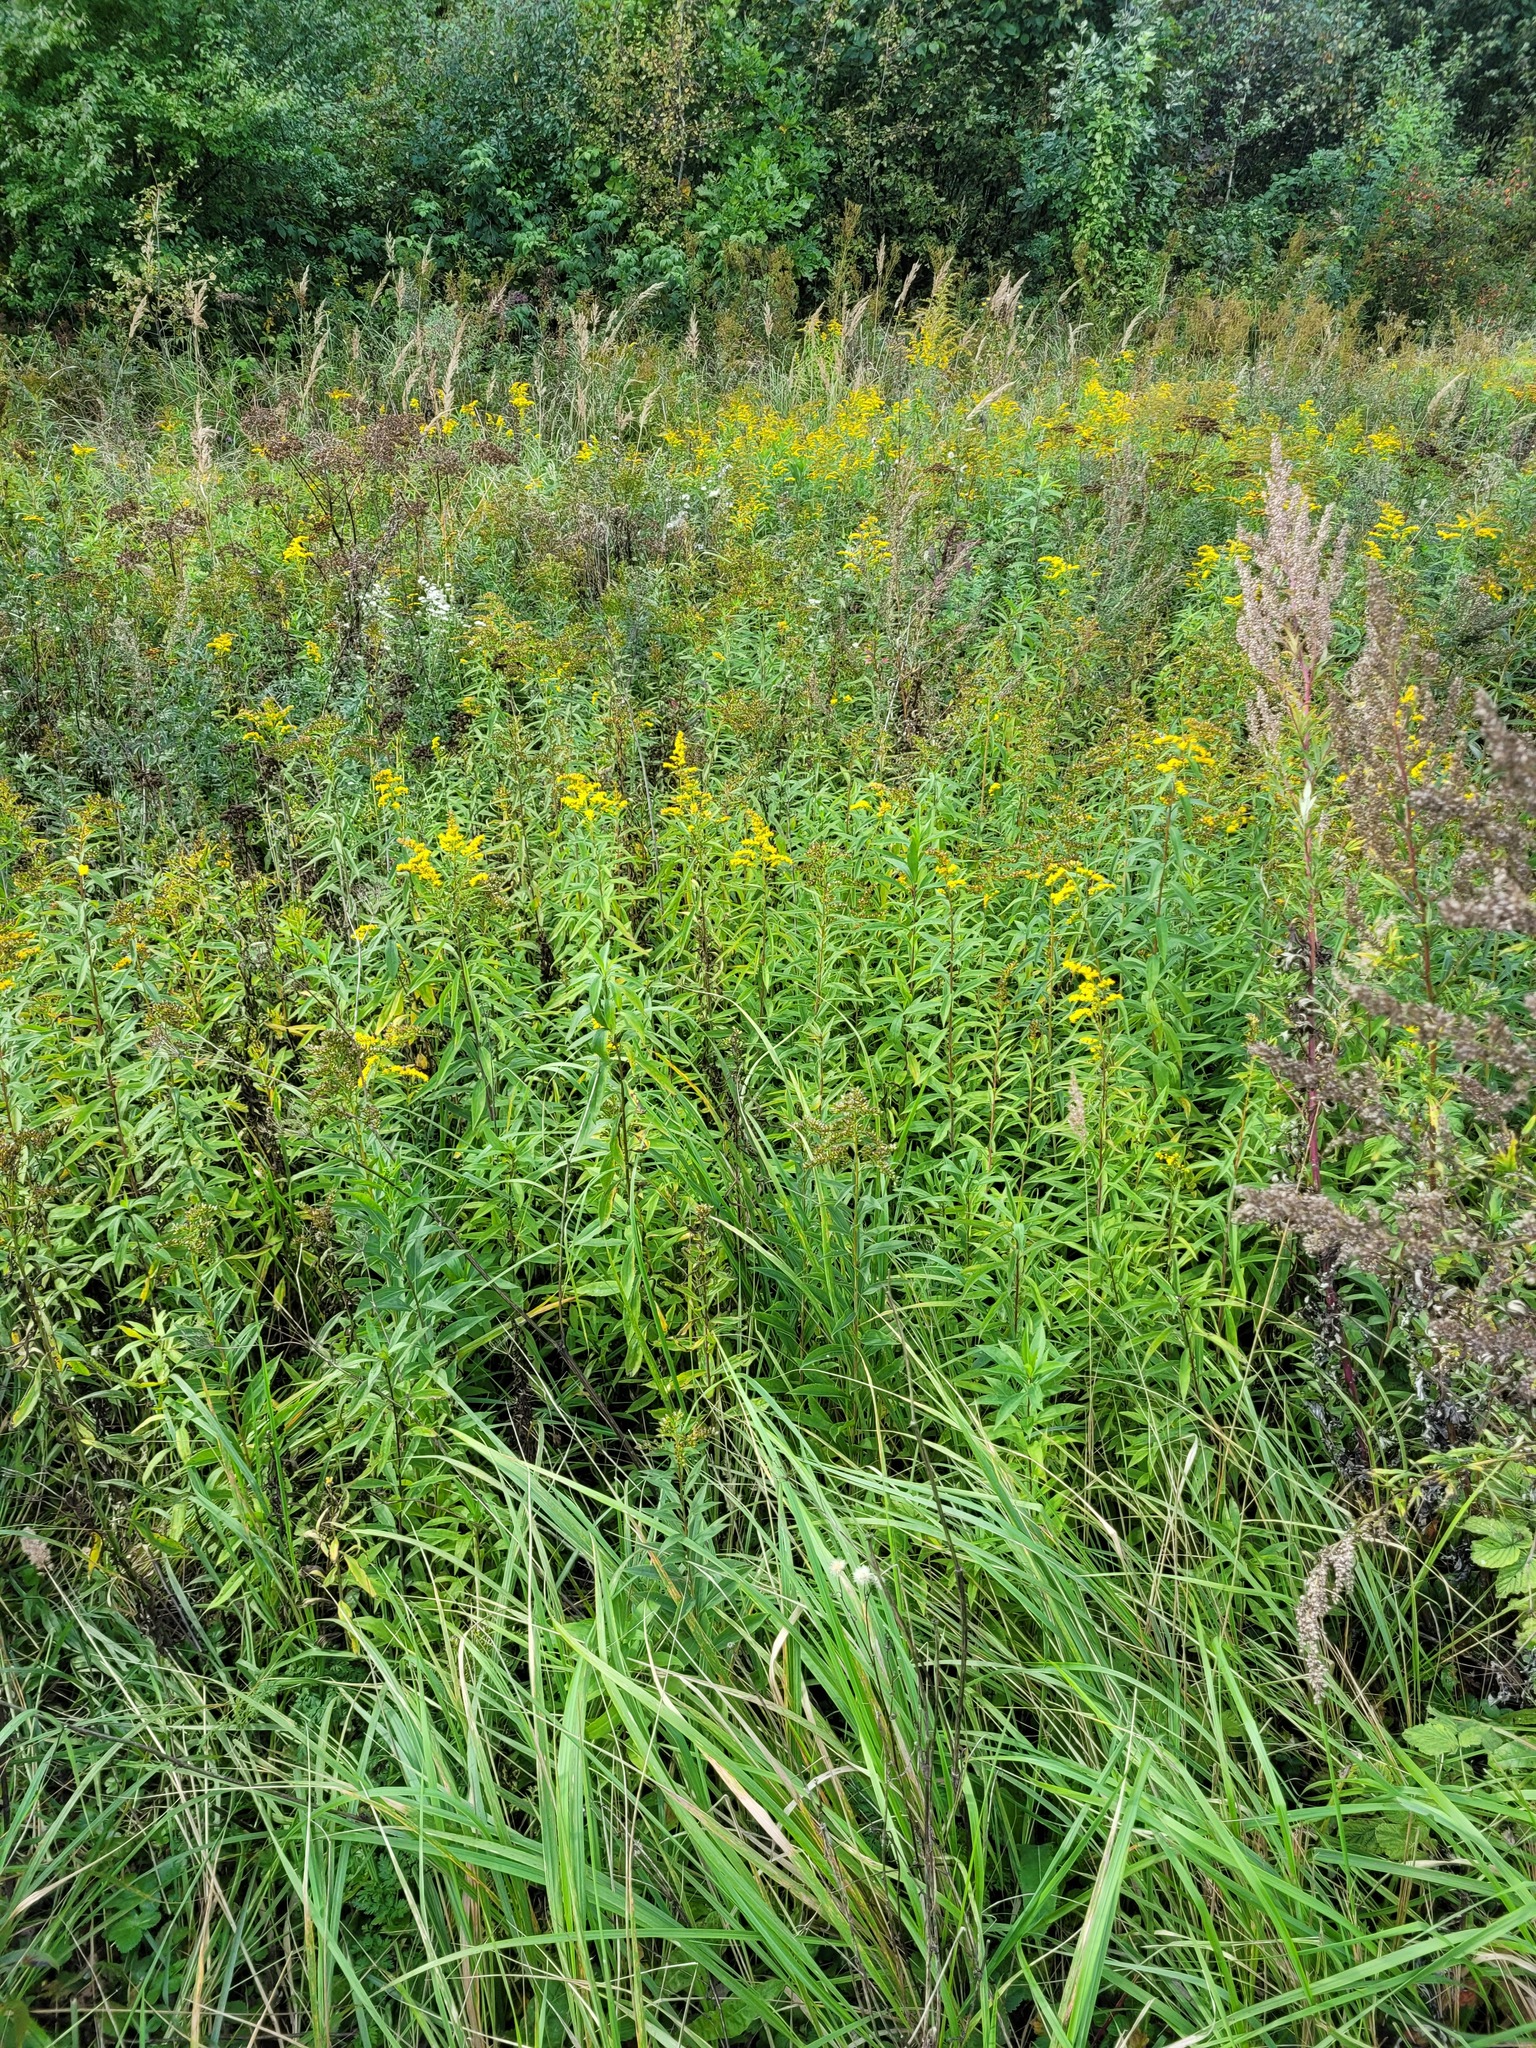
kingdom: Plantae
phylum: Tracheophyta
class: Magnoliopsida
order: Asterales
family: Asteraceae
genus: Solidago
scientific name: Solidago gigantea
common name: Giant goldenrod
